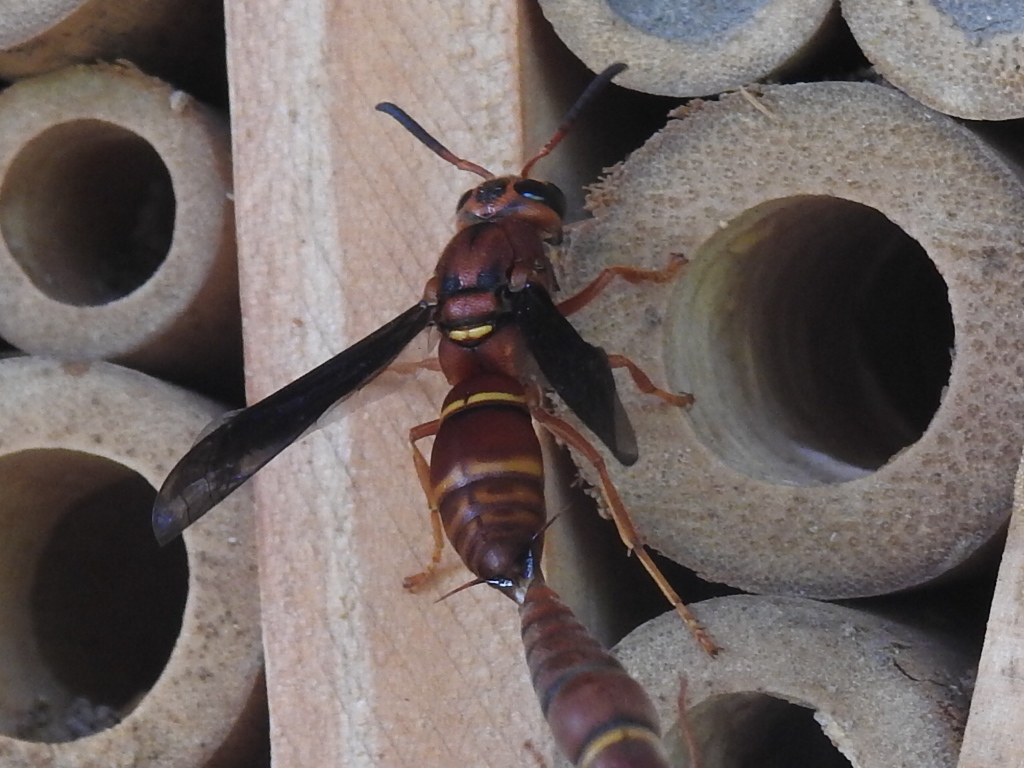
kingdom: Animalia
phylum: Arthropoda
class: Insecta
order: Hymenoptera
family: Eumenidae
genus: Monobia
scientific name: Monobia texana
